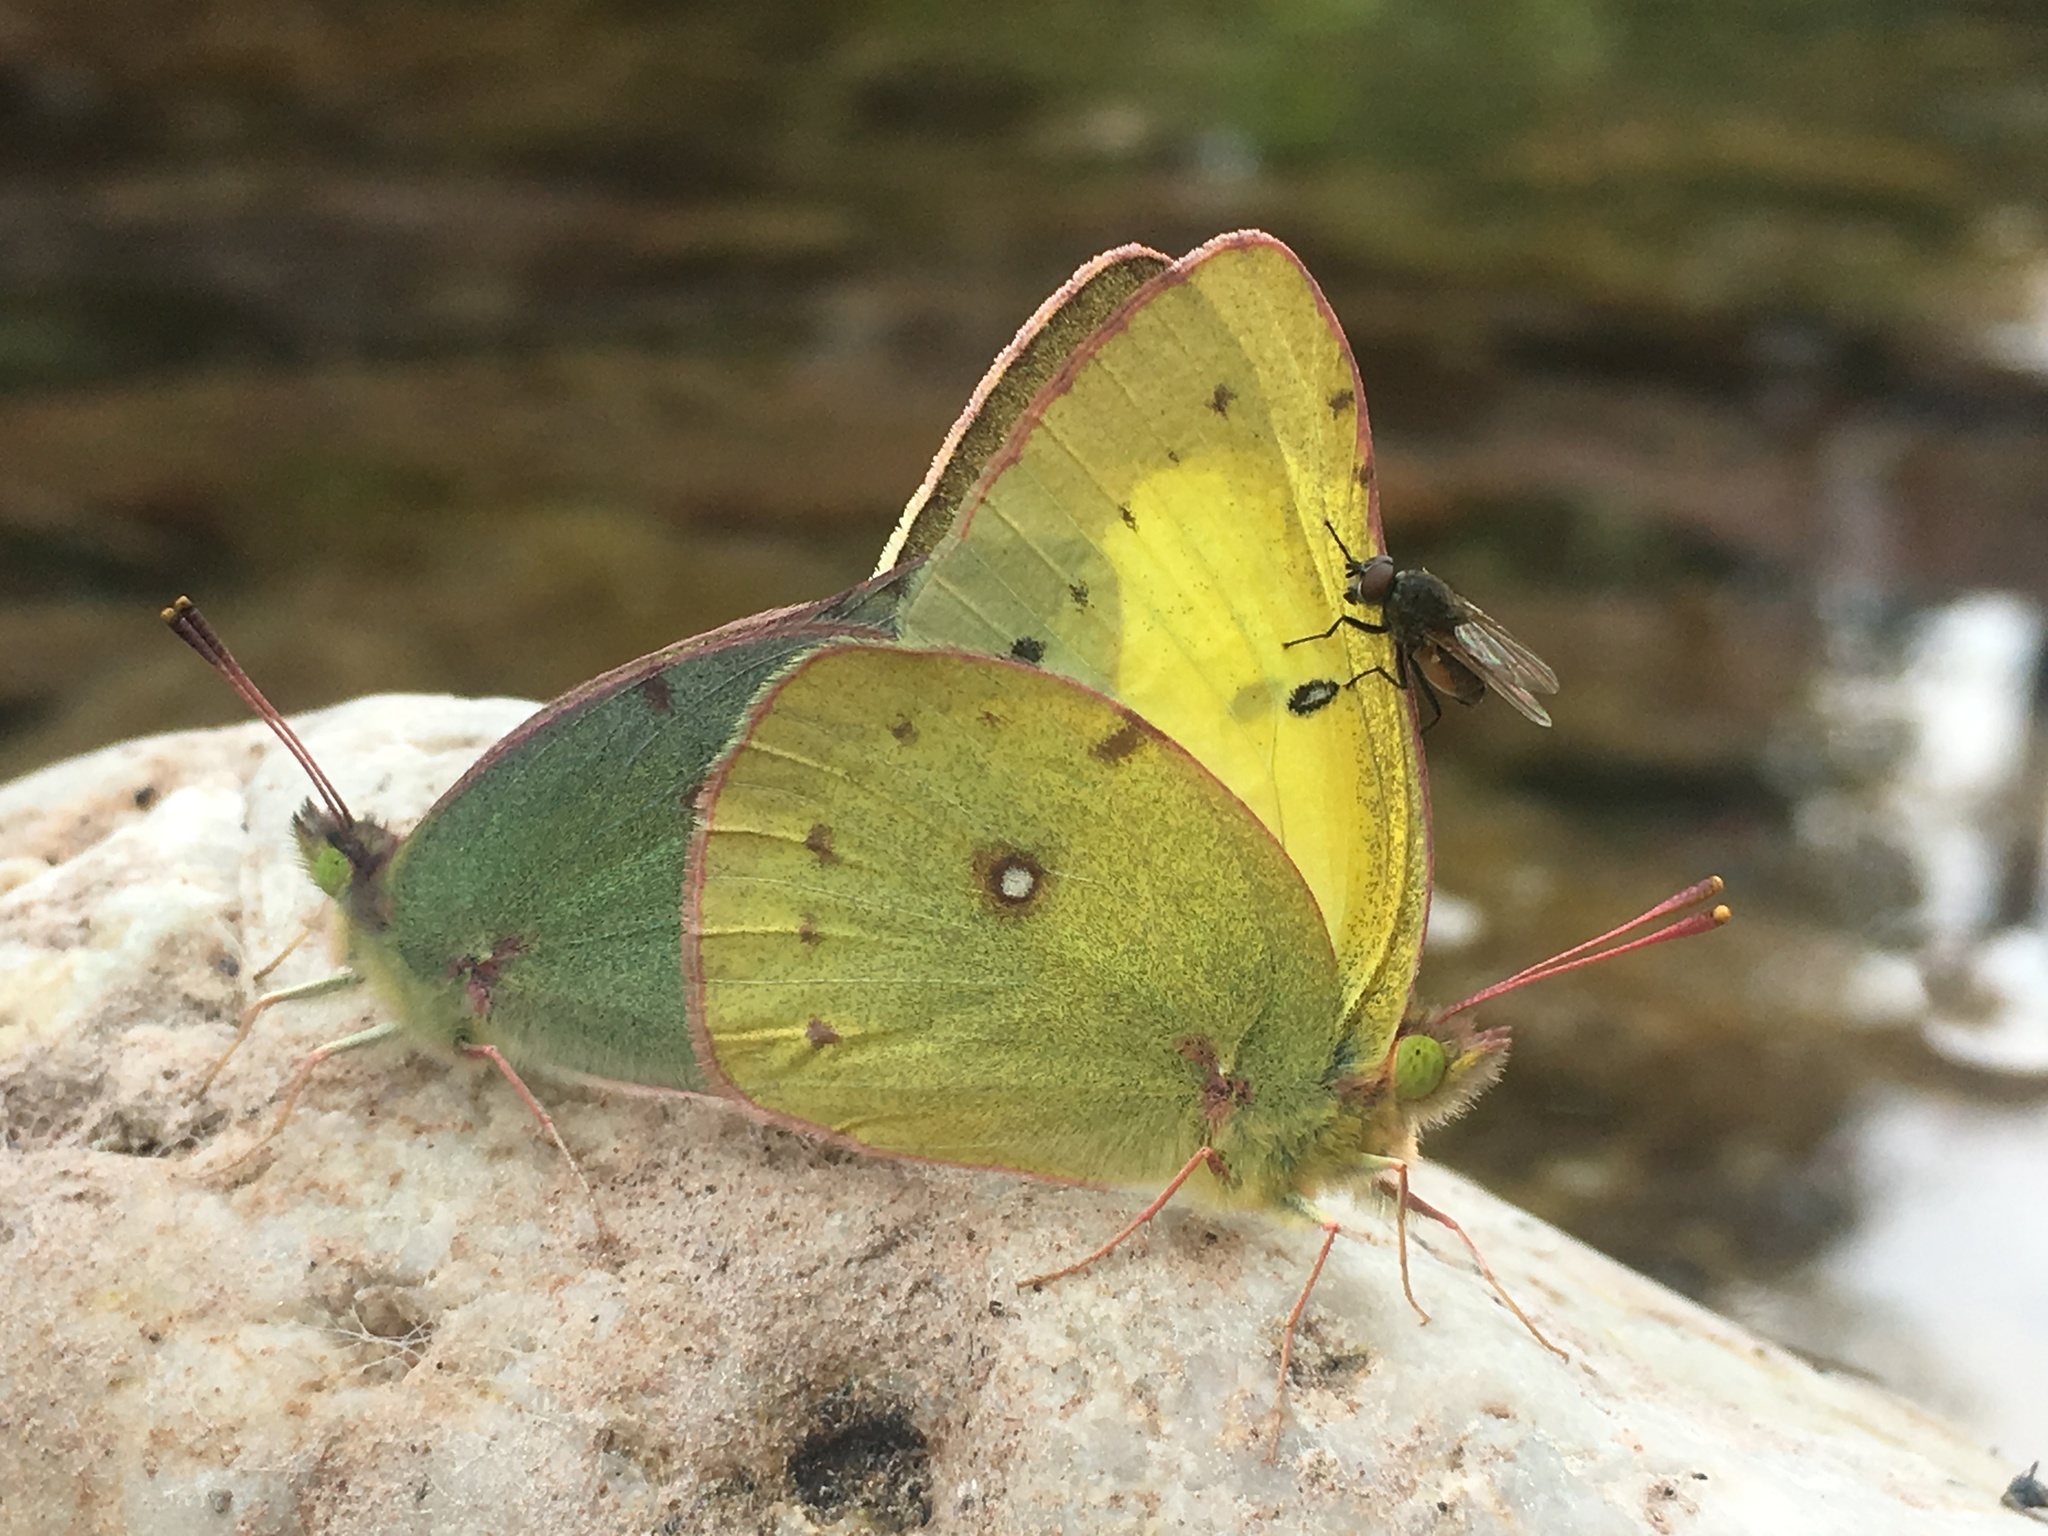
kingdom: Animalia
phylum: Arthropoda
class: Insecta
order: Lepidoptera
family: Pieridae
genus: Colias
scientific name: Colias philodice
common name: Clouded sulphur
